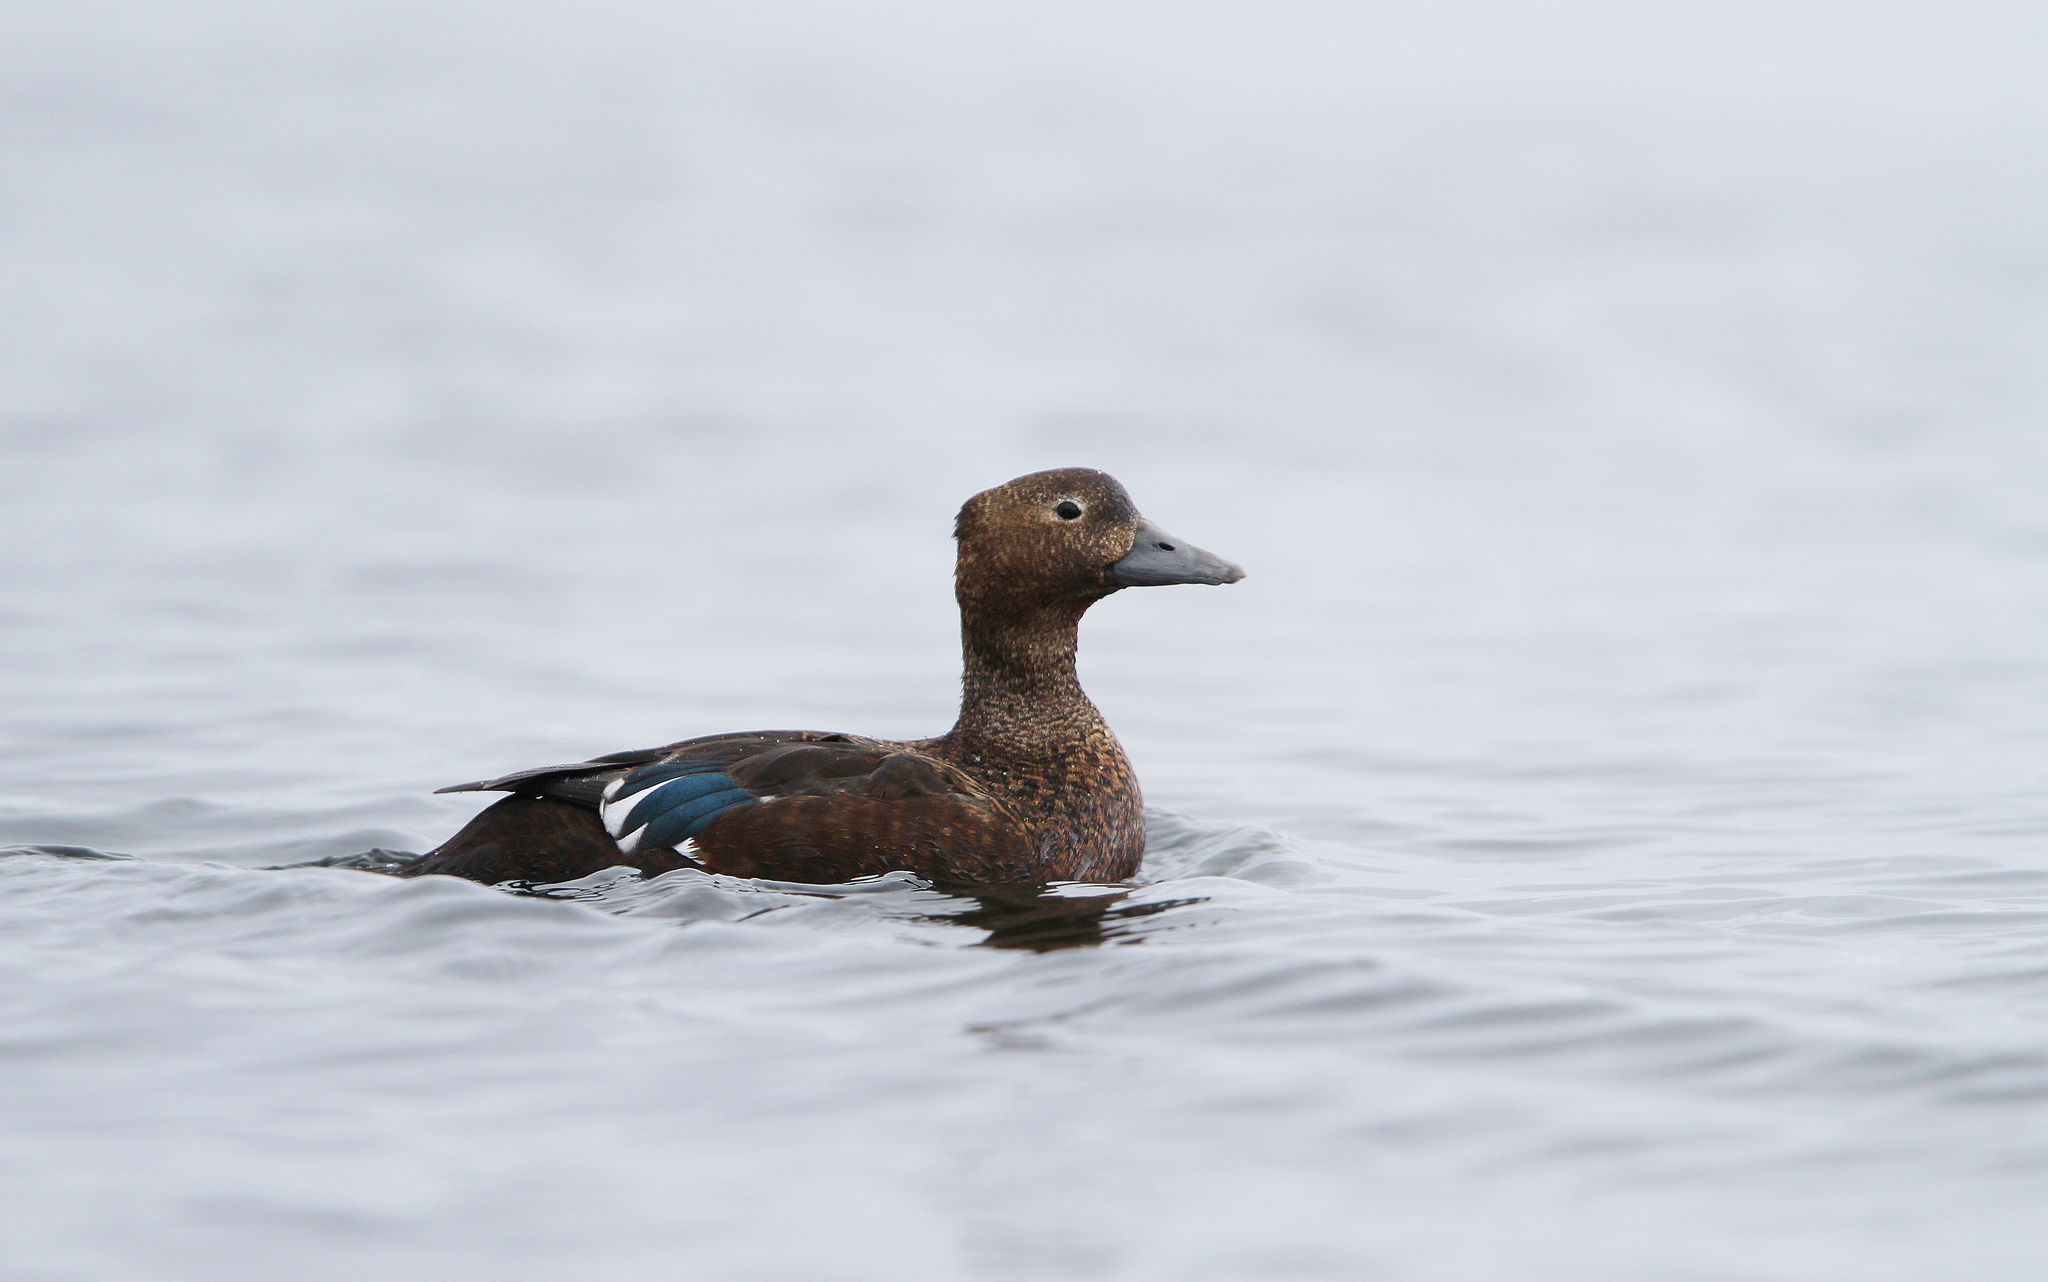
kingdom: Animalia
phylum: Chordata
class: Aves
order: Anseriformes
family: Anatidae
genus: Polysticta
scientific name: Polysticta stelleri
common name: Steller's eider
